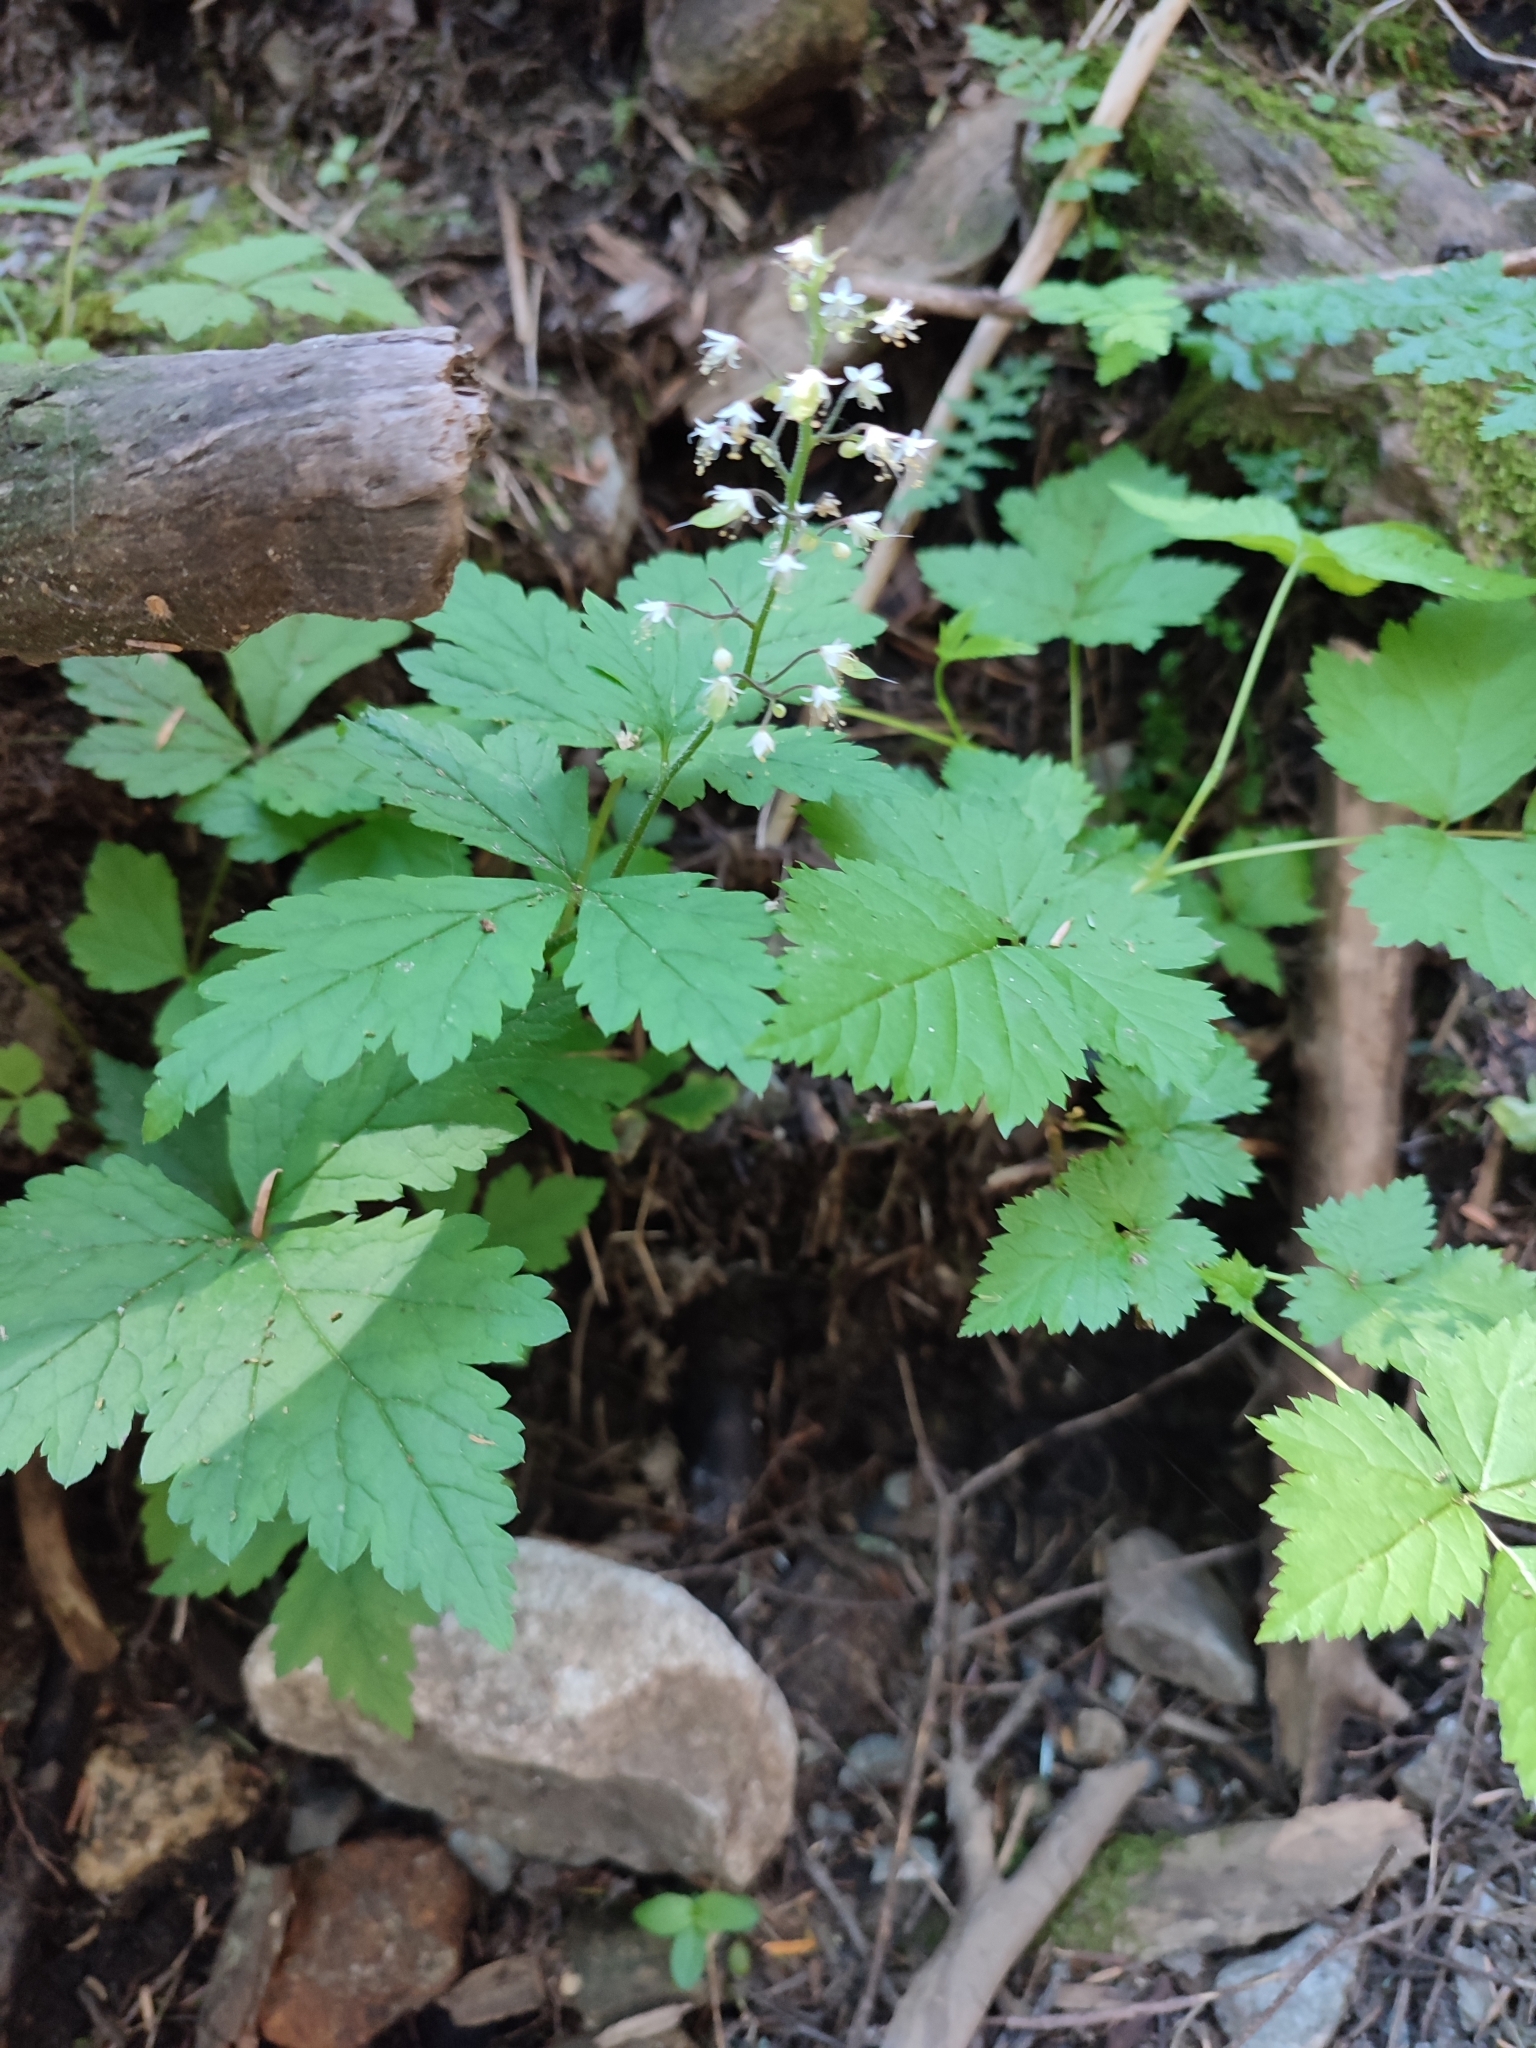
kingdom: Plantae
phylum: Tracheophyta
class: Magnoliopsida
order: Saxifragales
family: Saxifragaceae
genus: Tiarella
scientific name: Tiarella trifoliata
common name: Sugar-scoop
